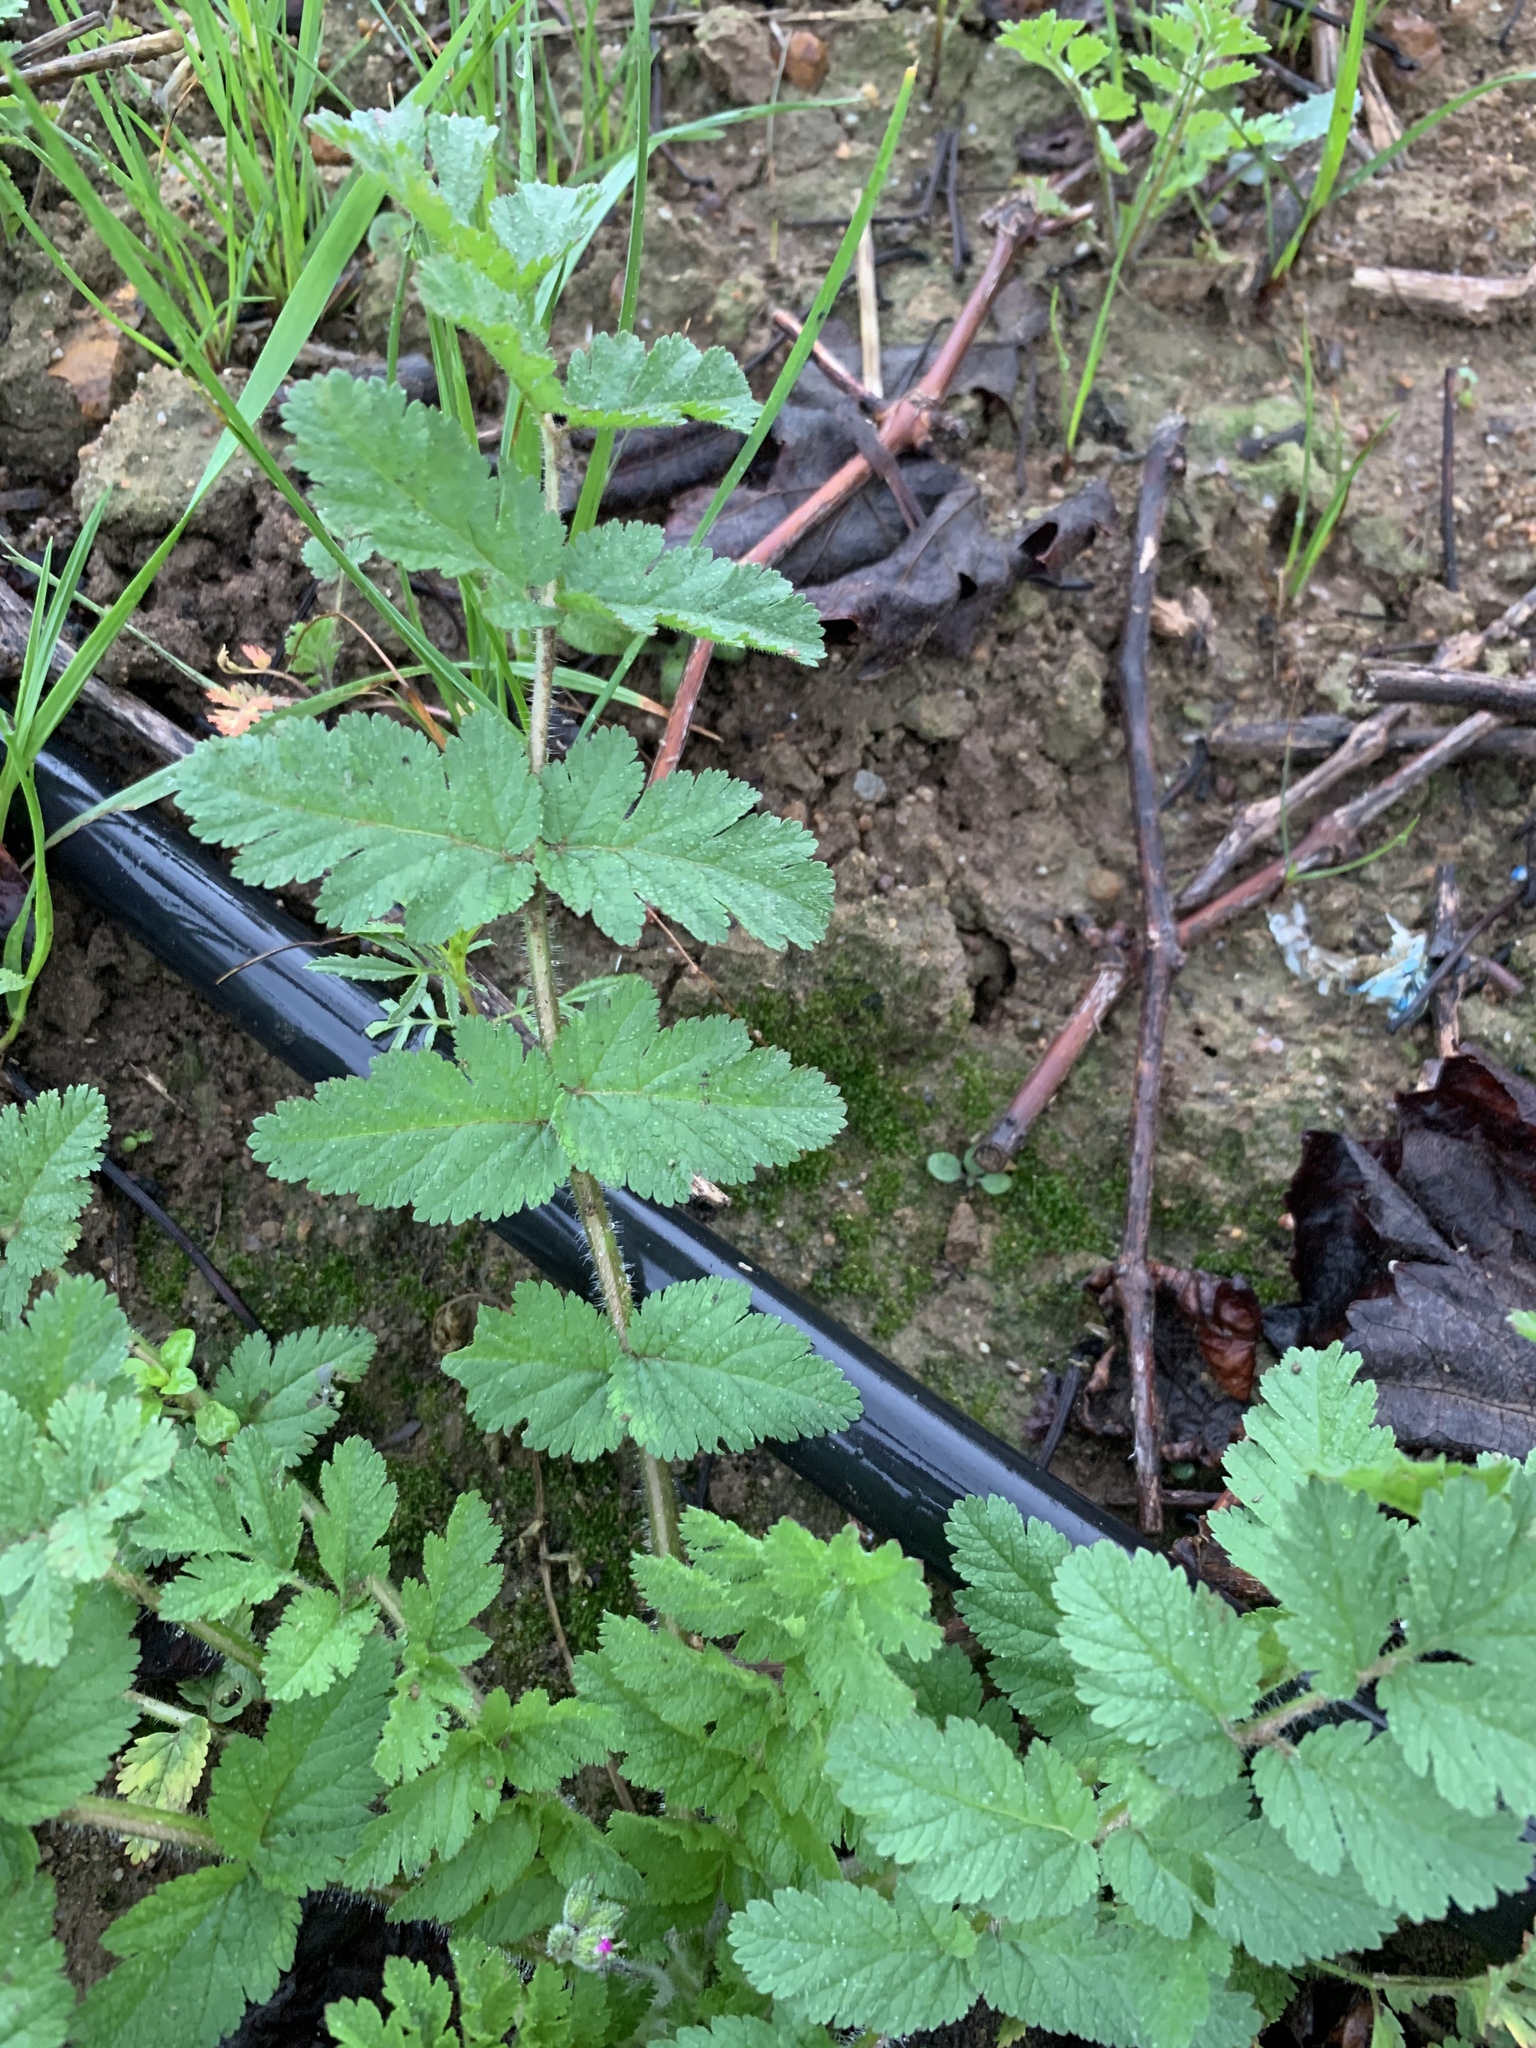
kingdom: Plantae
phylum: Tracheophyta
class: Magnoliopsida
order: Geraniales
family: Geraniaceae
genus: Erodium
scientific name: Erodium moschatum
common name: Musk stork's-bill
